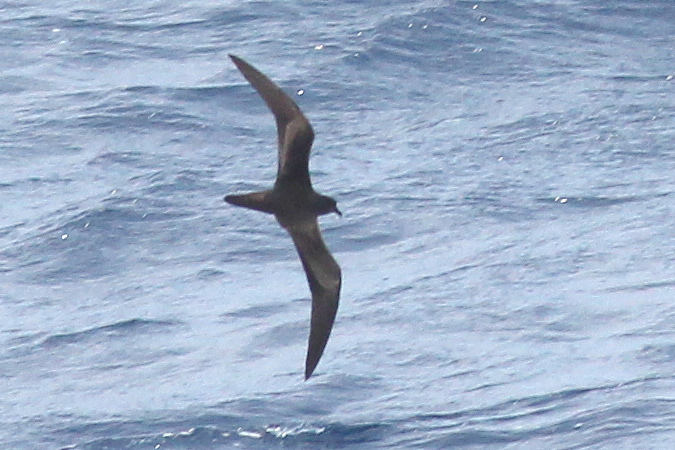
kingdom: Animalia
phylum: Chordata
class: Aves
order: Procellariiformes
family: Procellariidae
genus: Bulweria
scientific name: Bulweria bulwerii
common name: Bulwer's petrel
